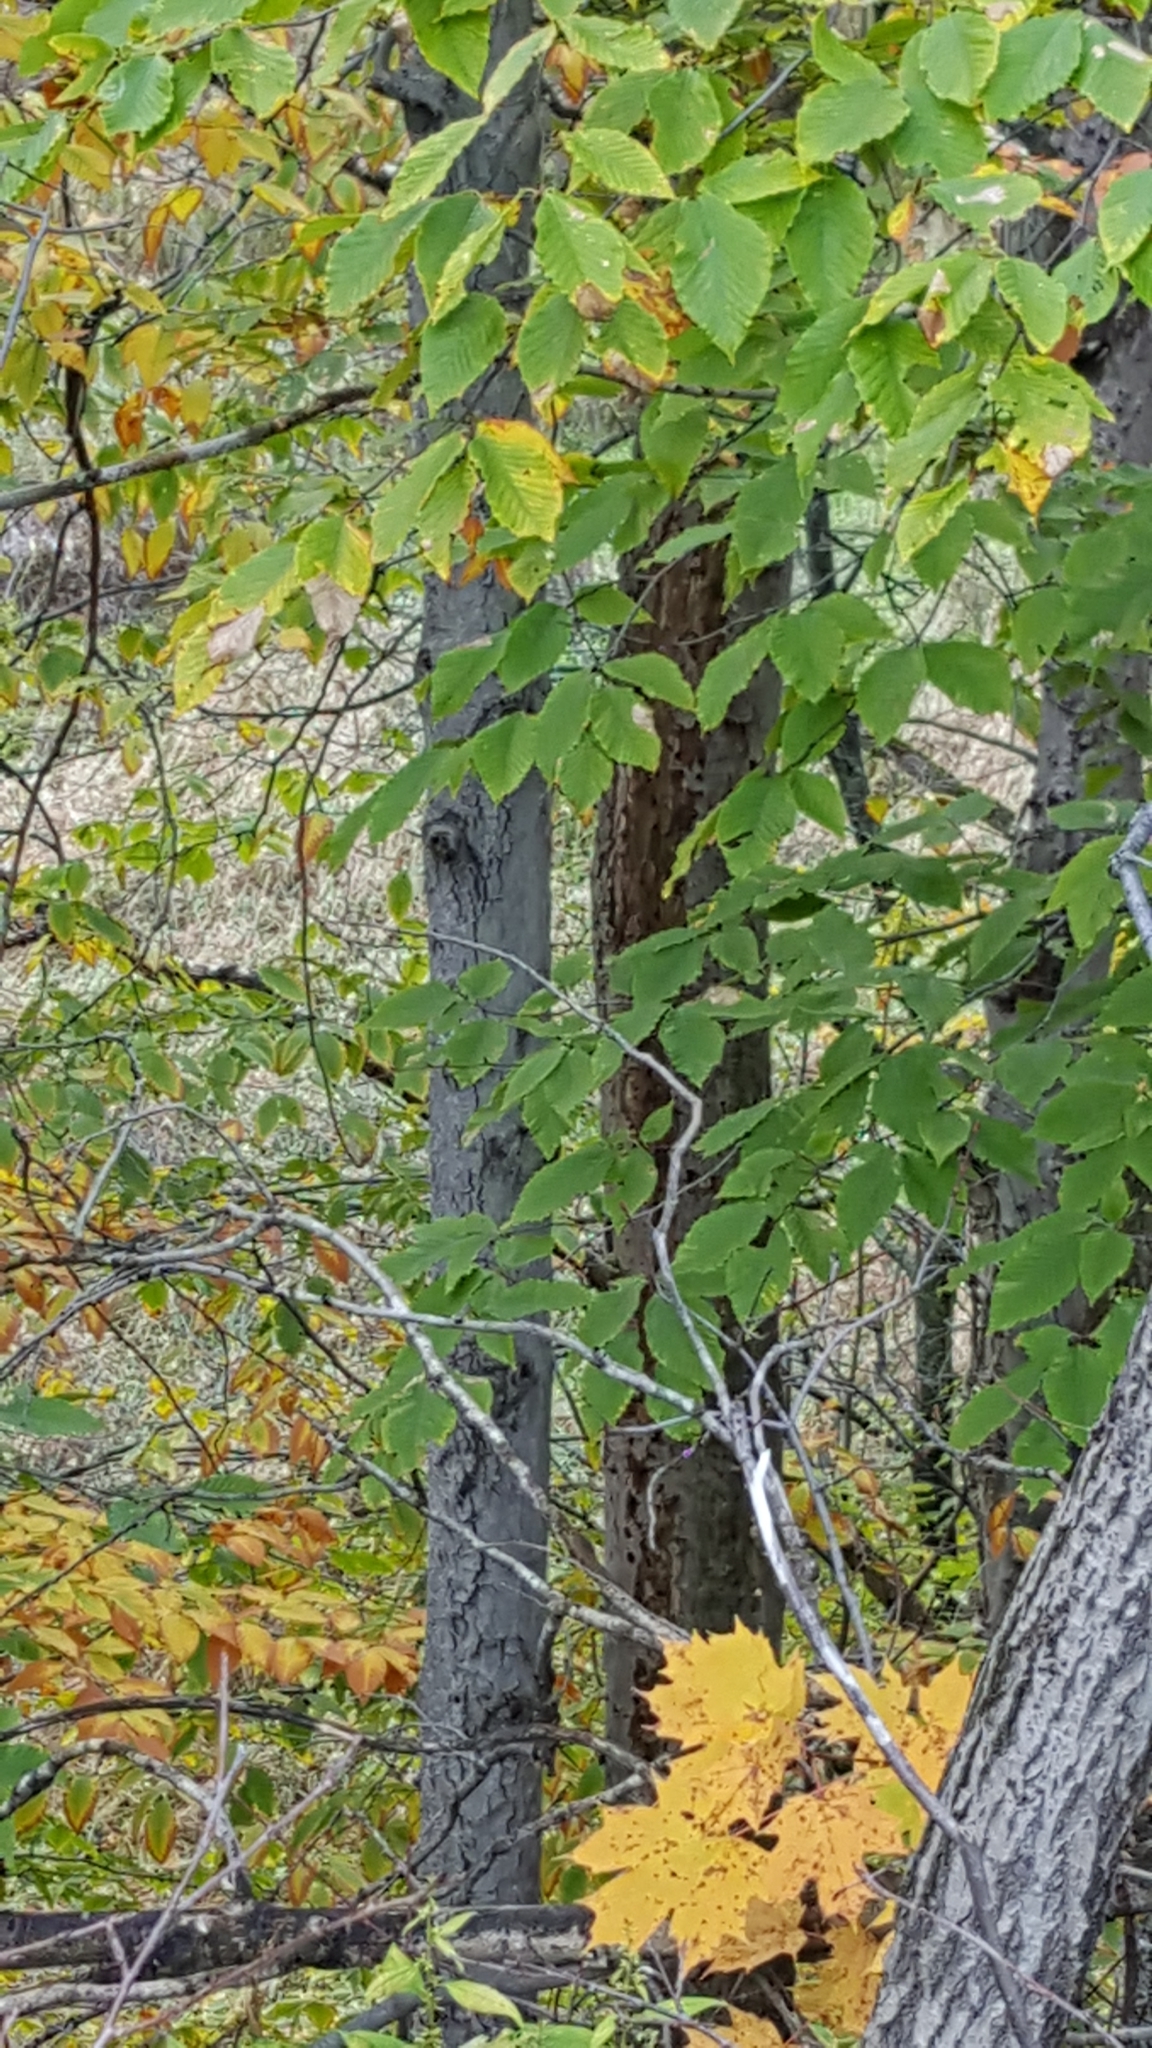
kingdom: Plantae
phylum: Tracheophyta
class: Magnoliopsida
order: Fagales
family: Fagaceae
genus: Fagus
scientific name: Fagus grandifolia
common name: American beech
